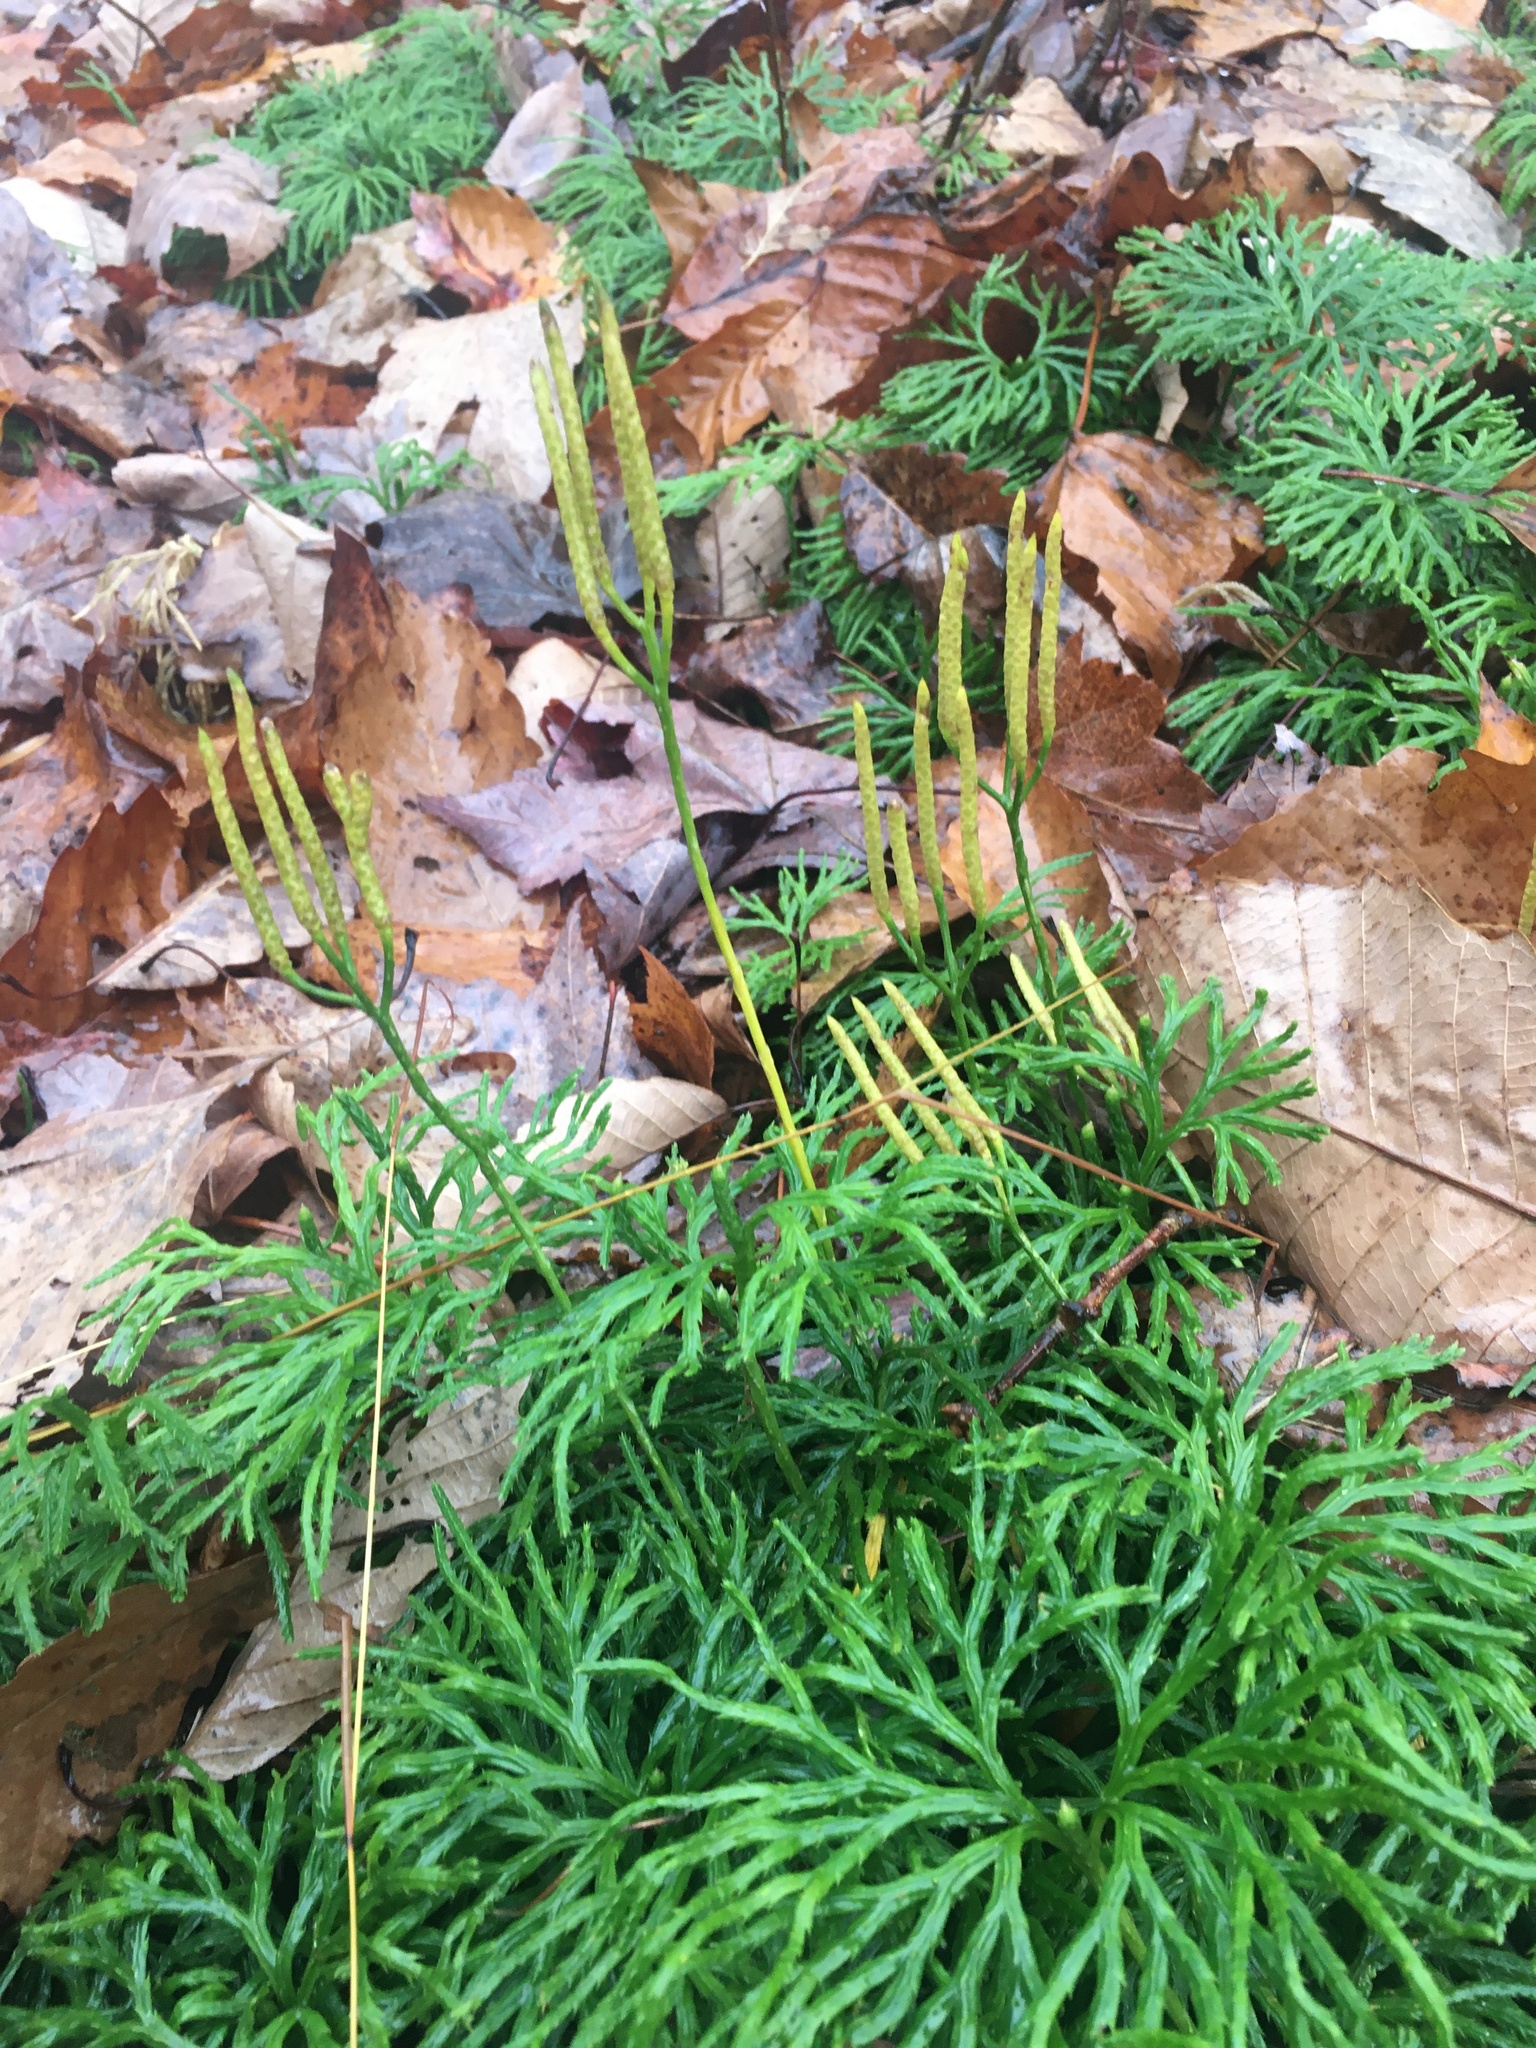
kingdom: Plantae
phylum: Tracheophyta
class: Lycopodiopsida
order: Lycopodiales
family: Lycopodiaceae
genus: Diphasiastrum
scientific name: Diphasiastrum digitatum
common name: Southern running-pine
